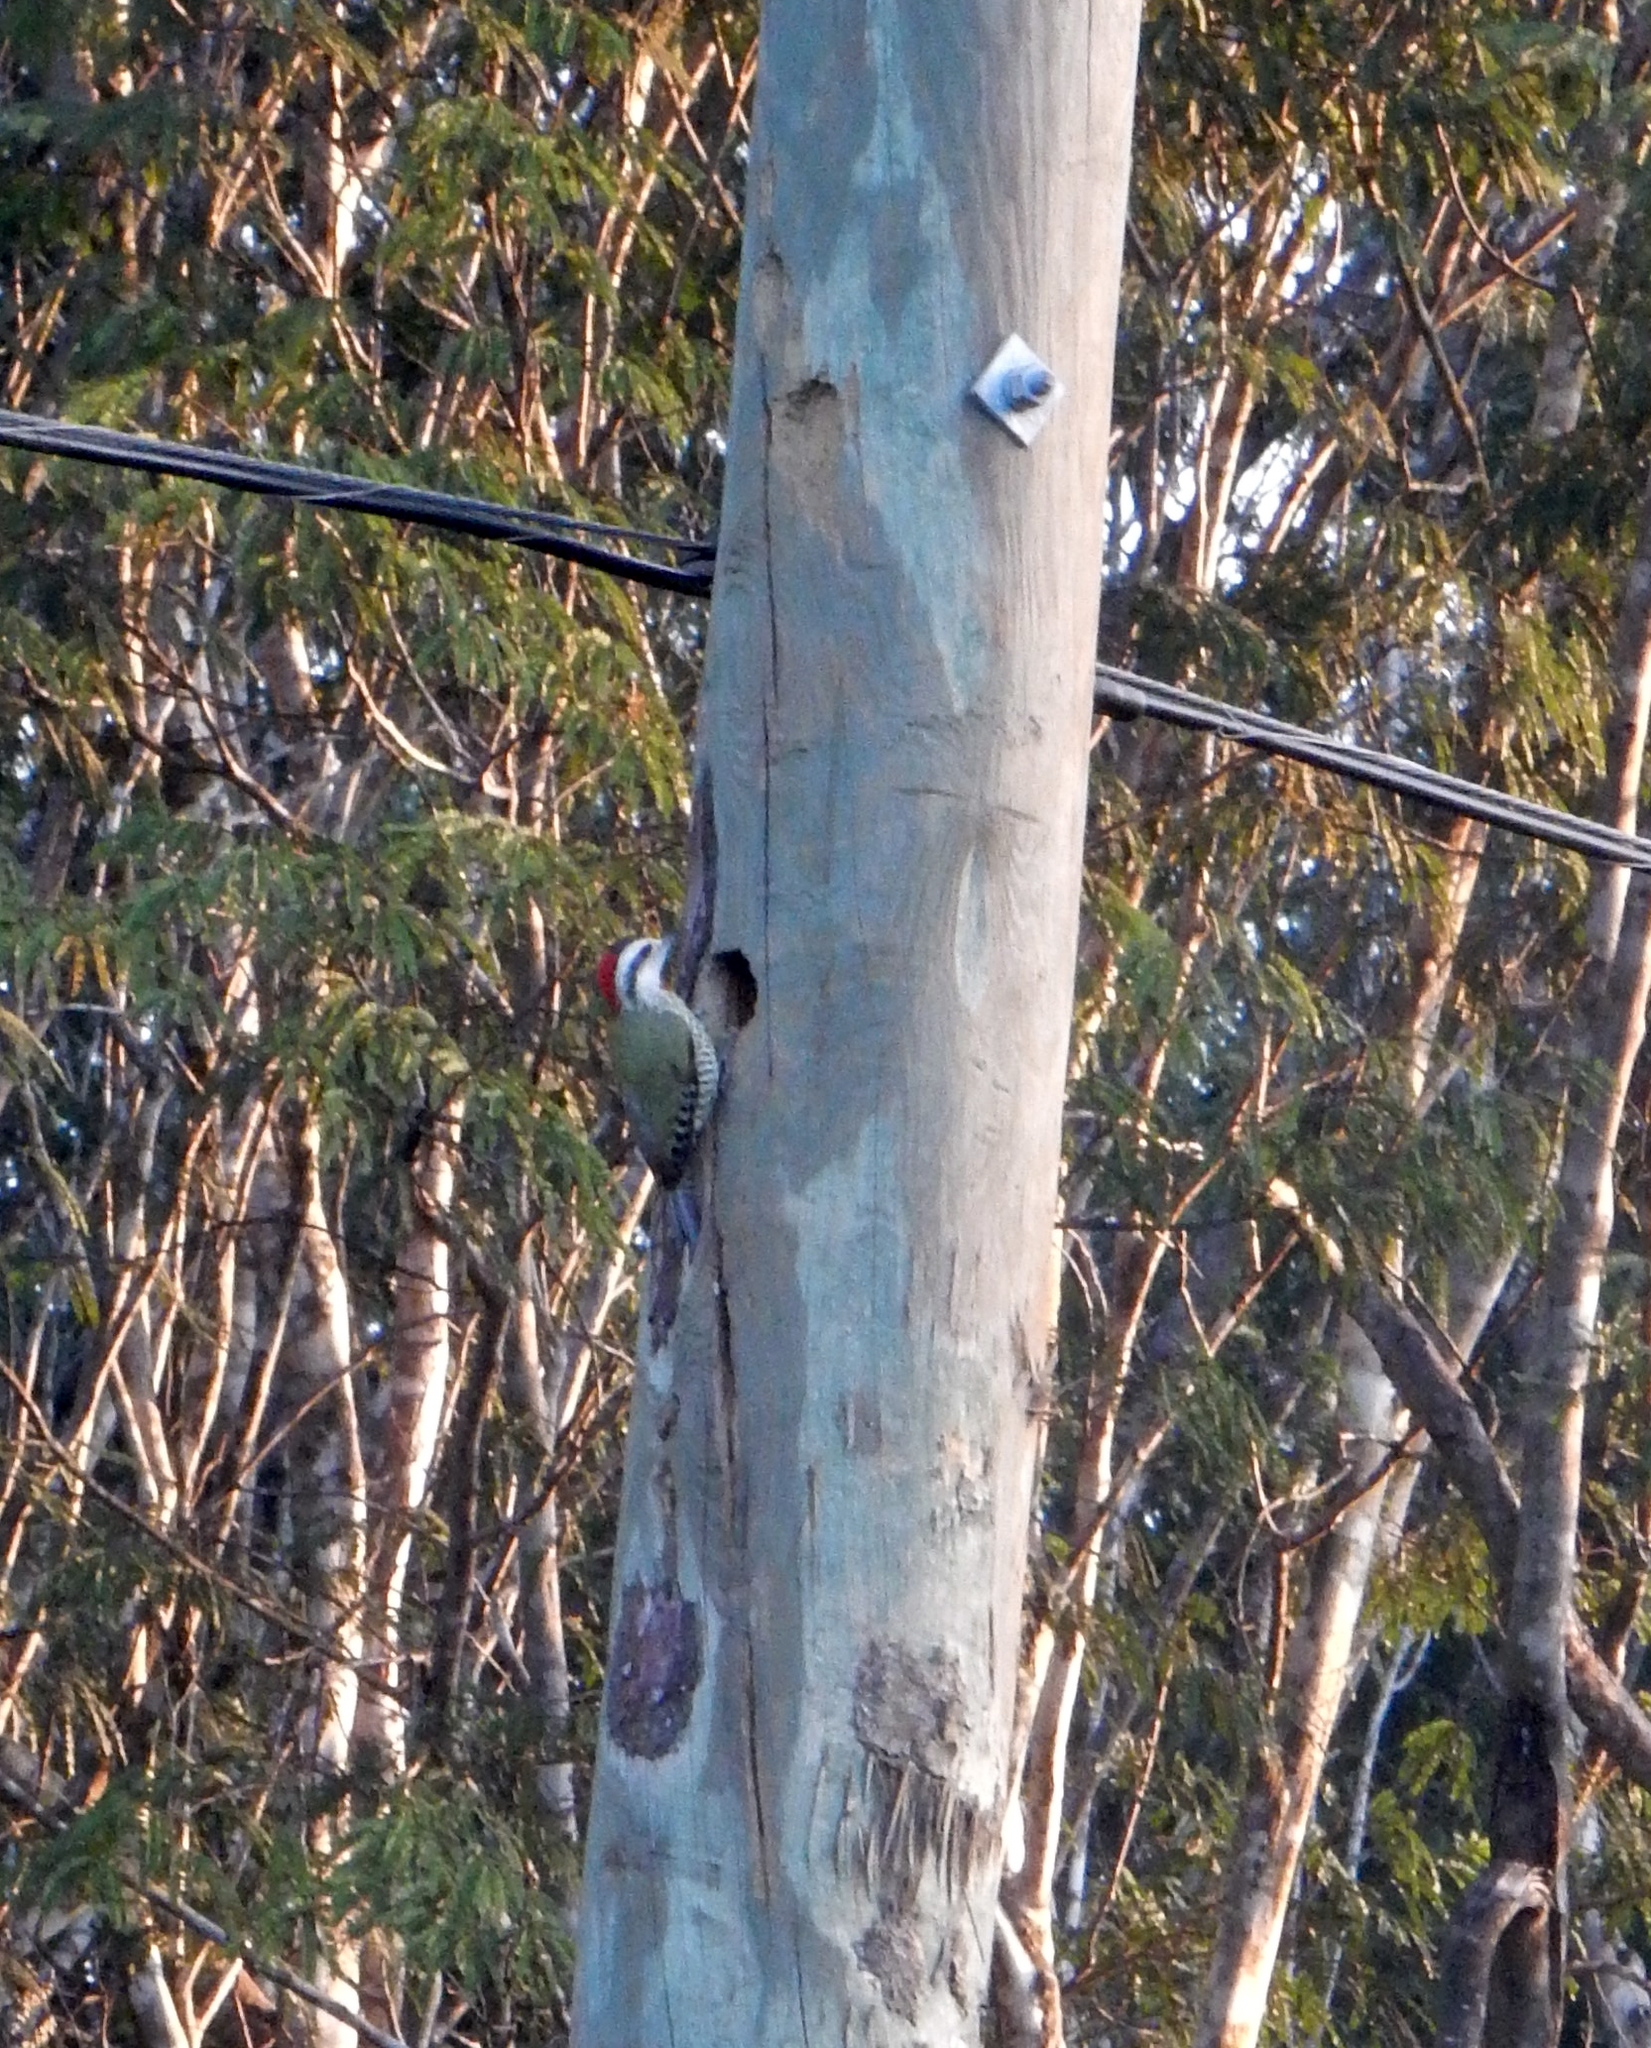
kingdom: Animalia
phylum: Chordata
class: Aves
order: Piciformes
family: Picidae
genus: Xiphidiopicus
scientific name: Xiphidiopicus percussus
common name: Cuban green woodpecker
